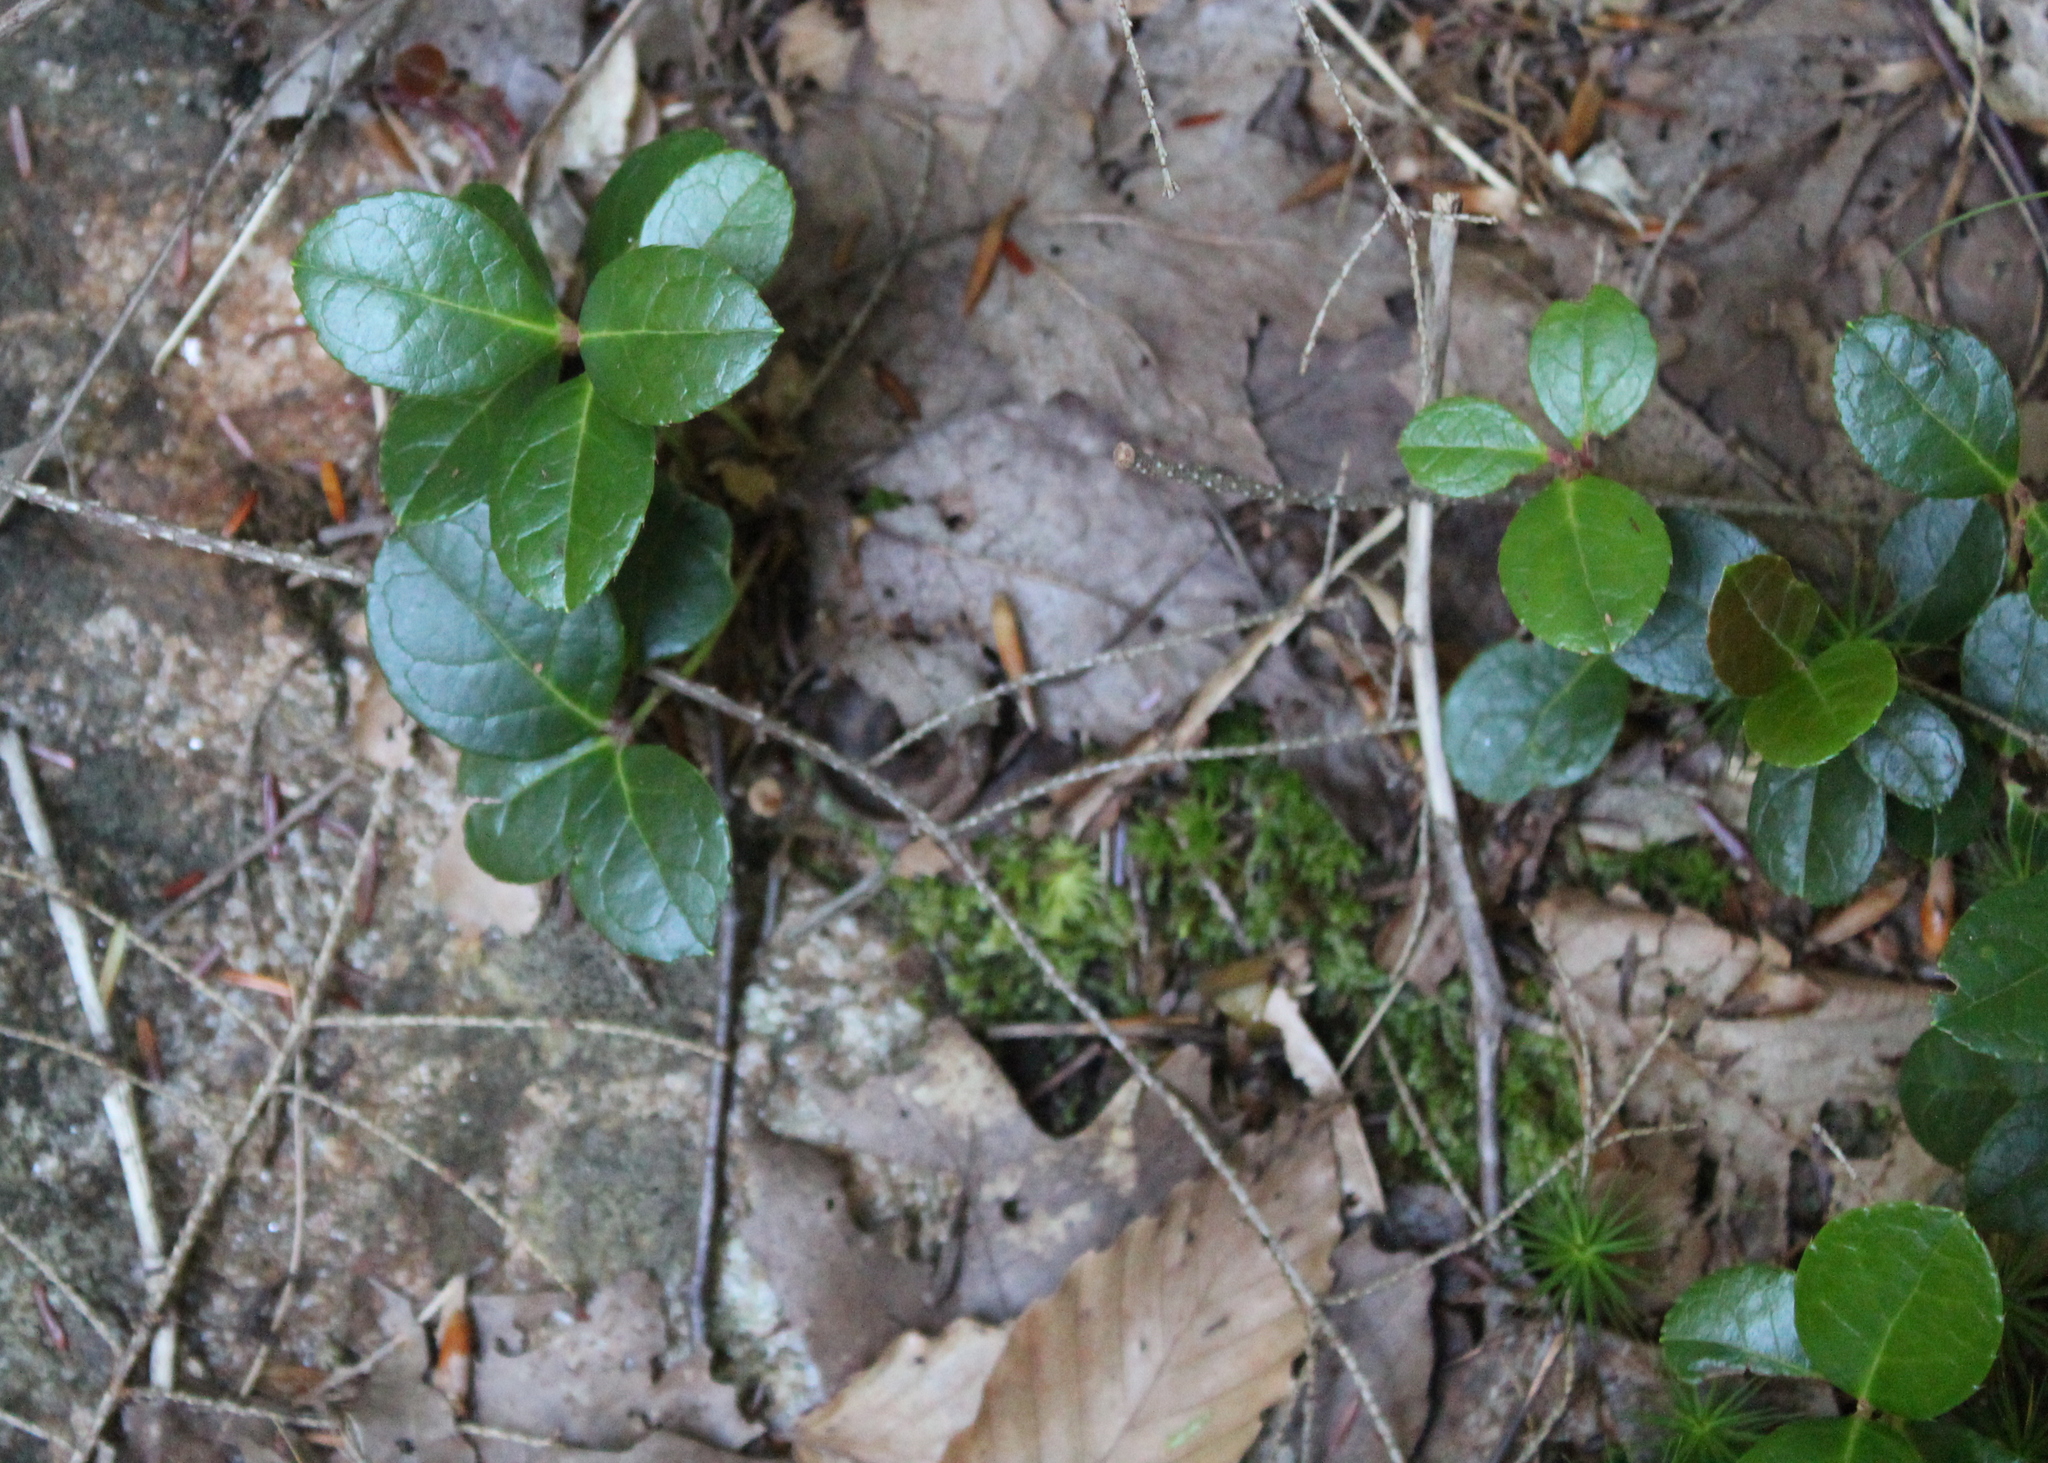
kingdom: Plantae
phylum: Tracheophyta
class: Magnoliopsida
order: Ericales
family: Ericaceae
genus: Gaultheria
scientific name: Gaultheria procumbens
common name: Checkerberry
